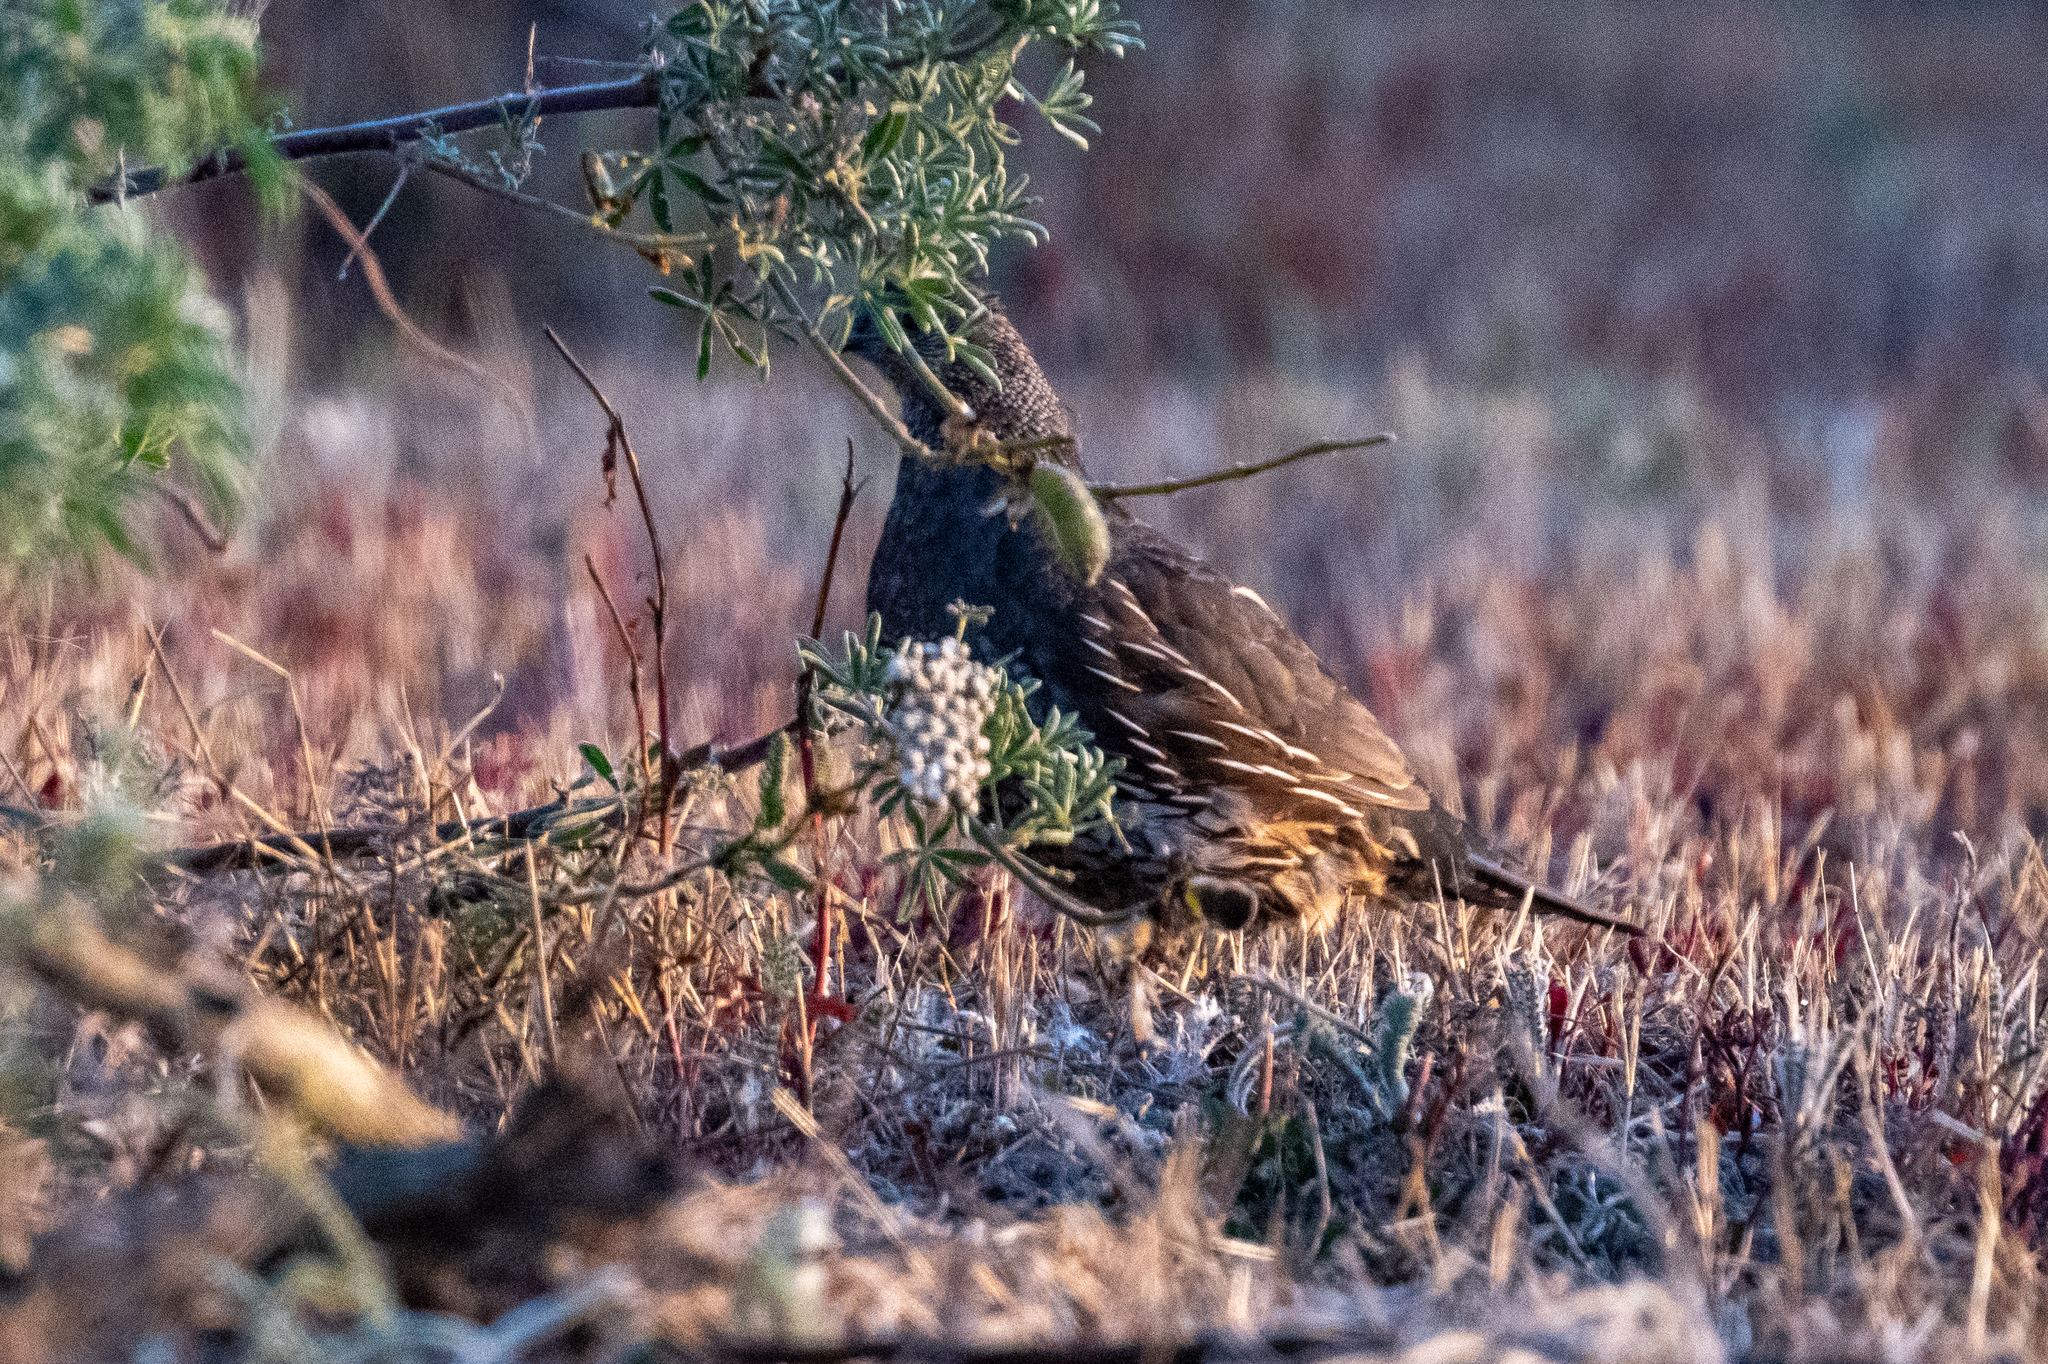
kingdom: Animalia
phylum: Chordata
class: Aves
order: Galliformes
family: Odontophoridae
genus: Callipepla
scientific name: Callipepla californica
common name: California quail
